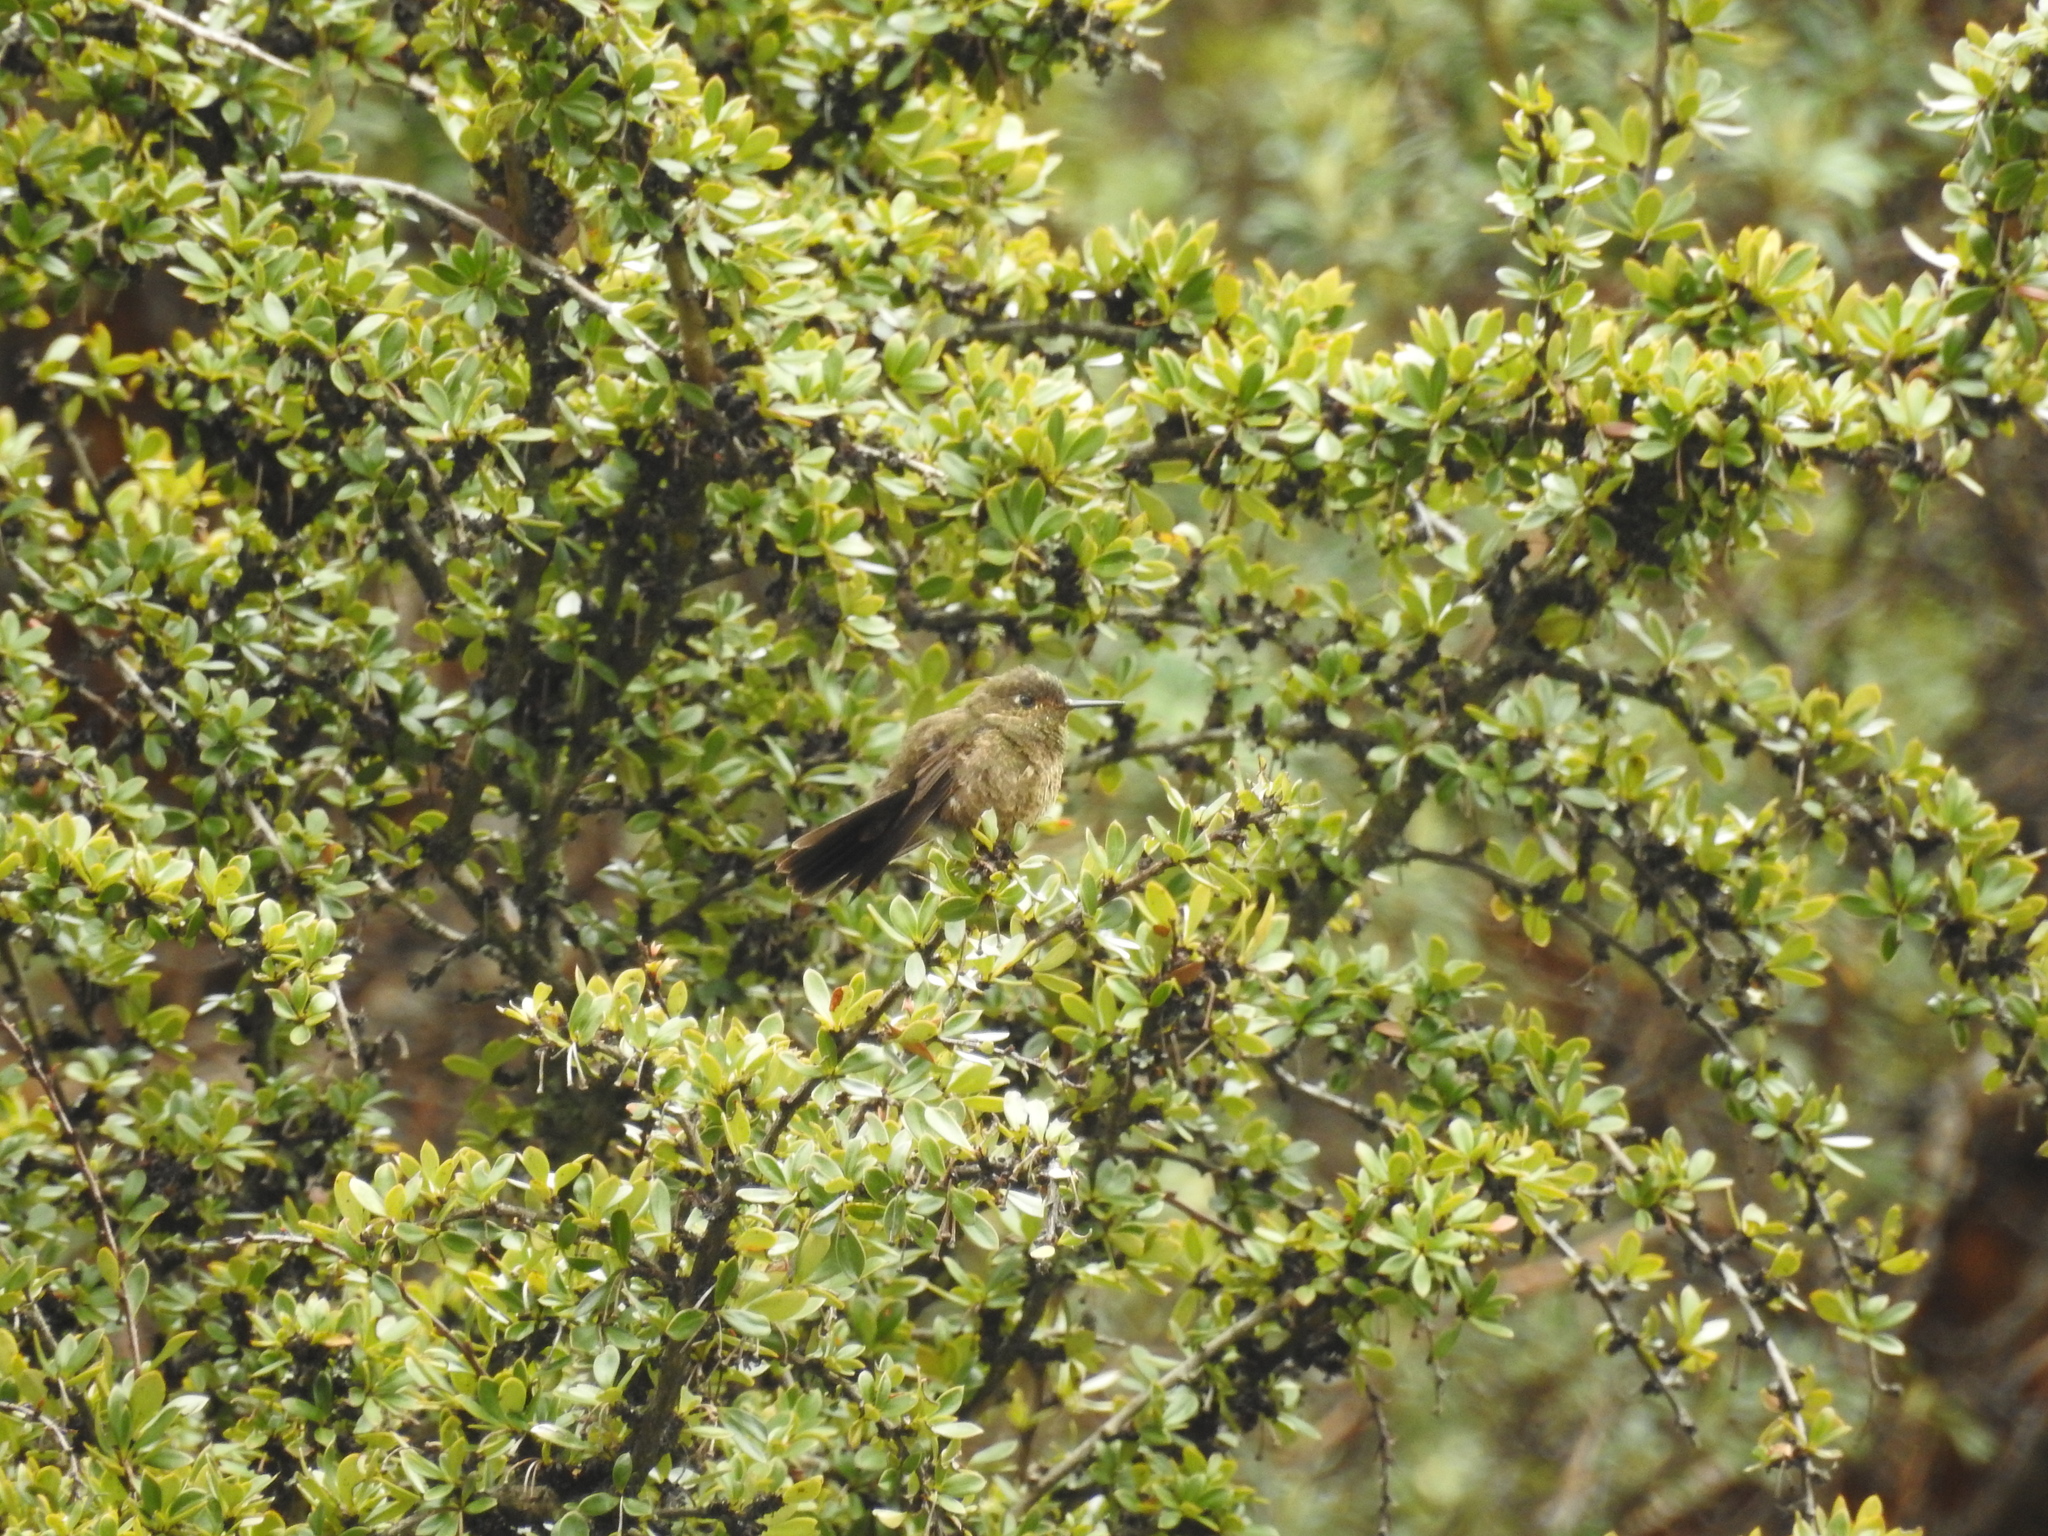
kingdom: Animalia
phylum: Chordata
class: Aves
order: Apodiformes
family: Trochilidae
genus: Metallura
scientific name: Metallura baroni
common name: Violet-throated metaltail
